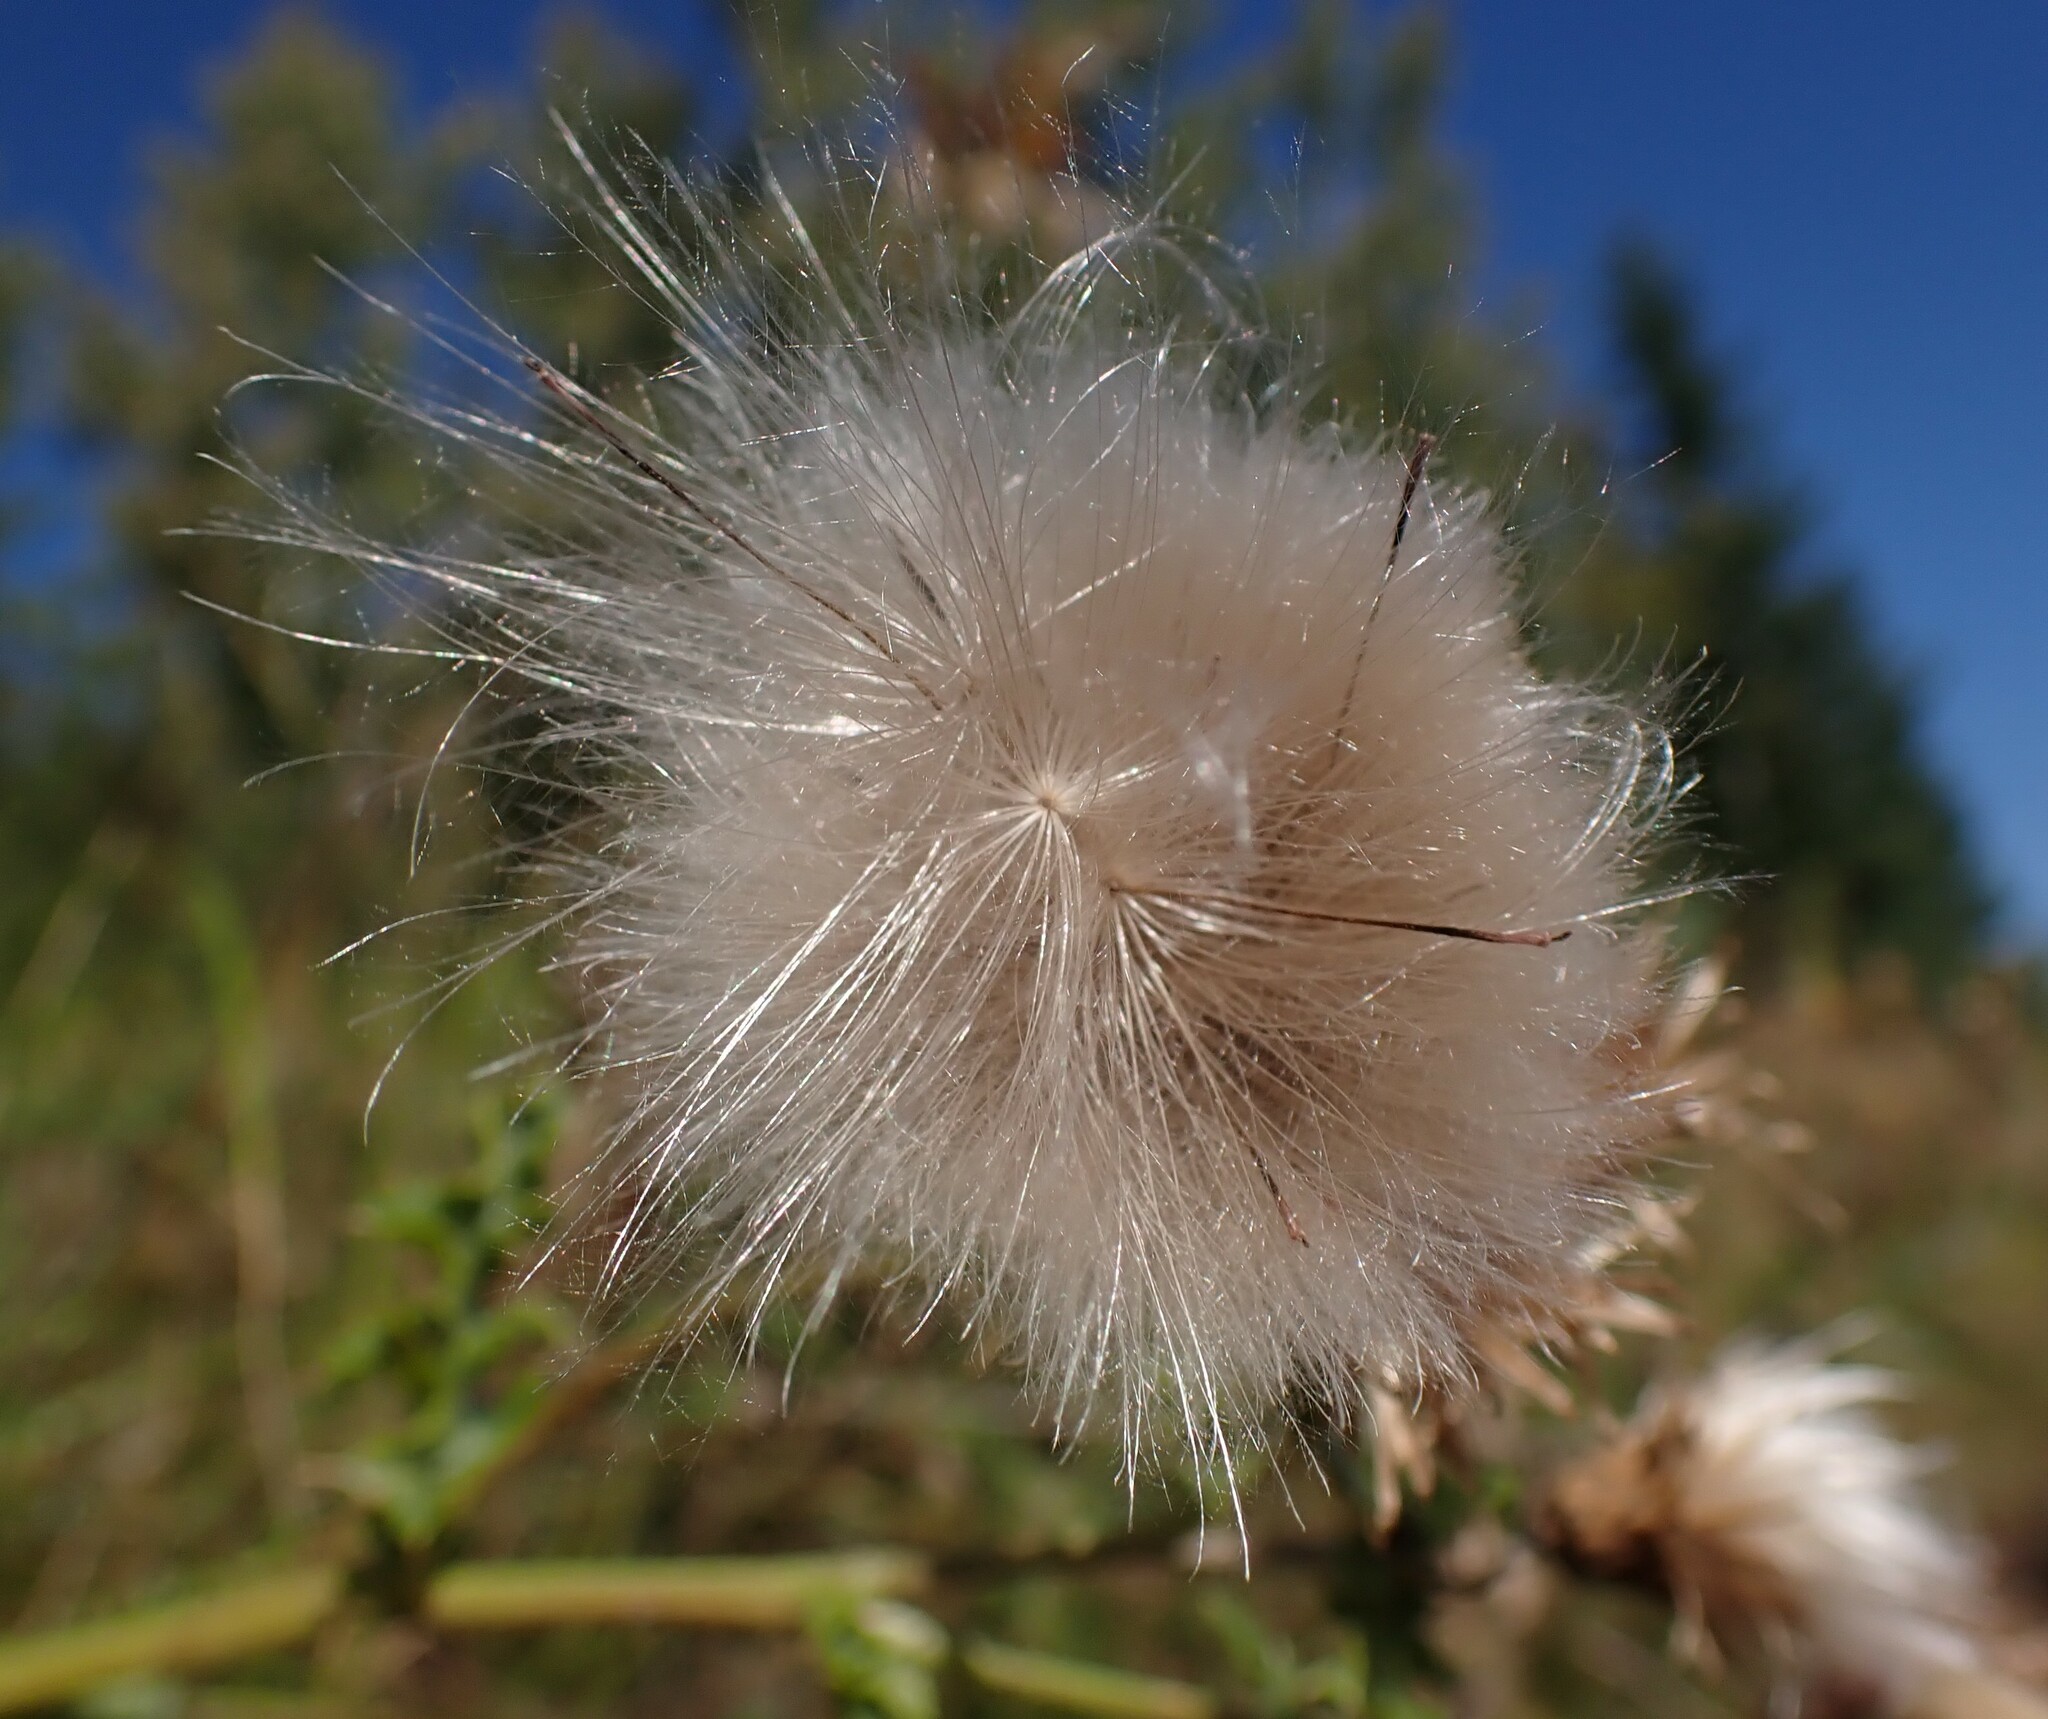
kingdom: Plantae
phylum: Tracheophyta
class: Magnoliopsida
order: Asterales
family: Asteraceae
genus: Cirsium
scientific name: Cirsium arvense
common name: Creeping thistle
